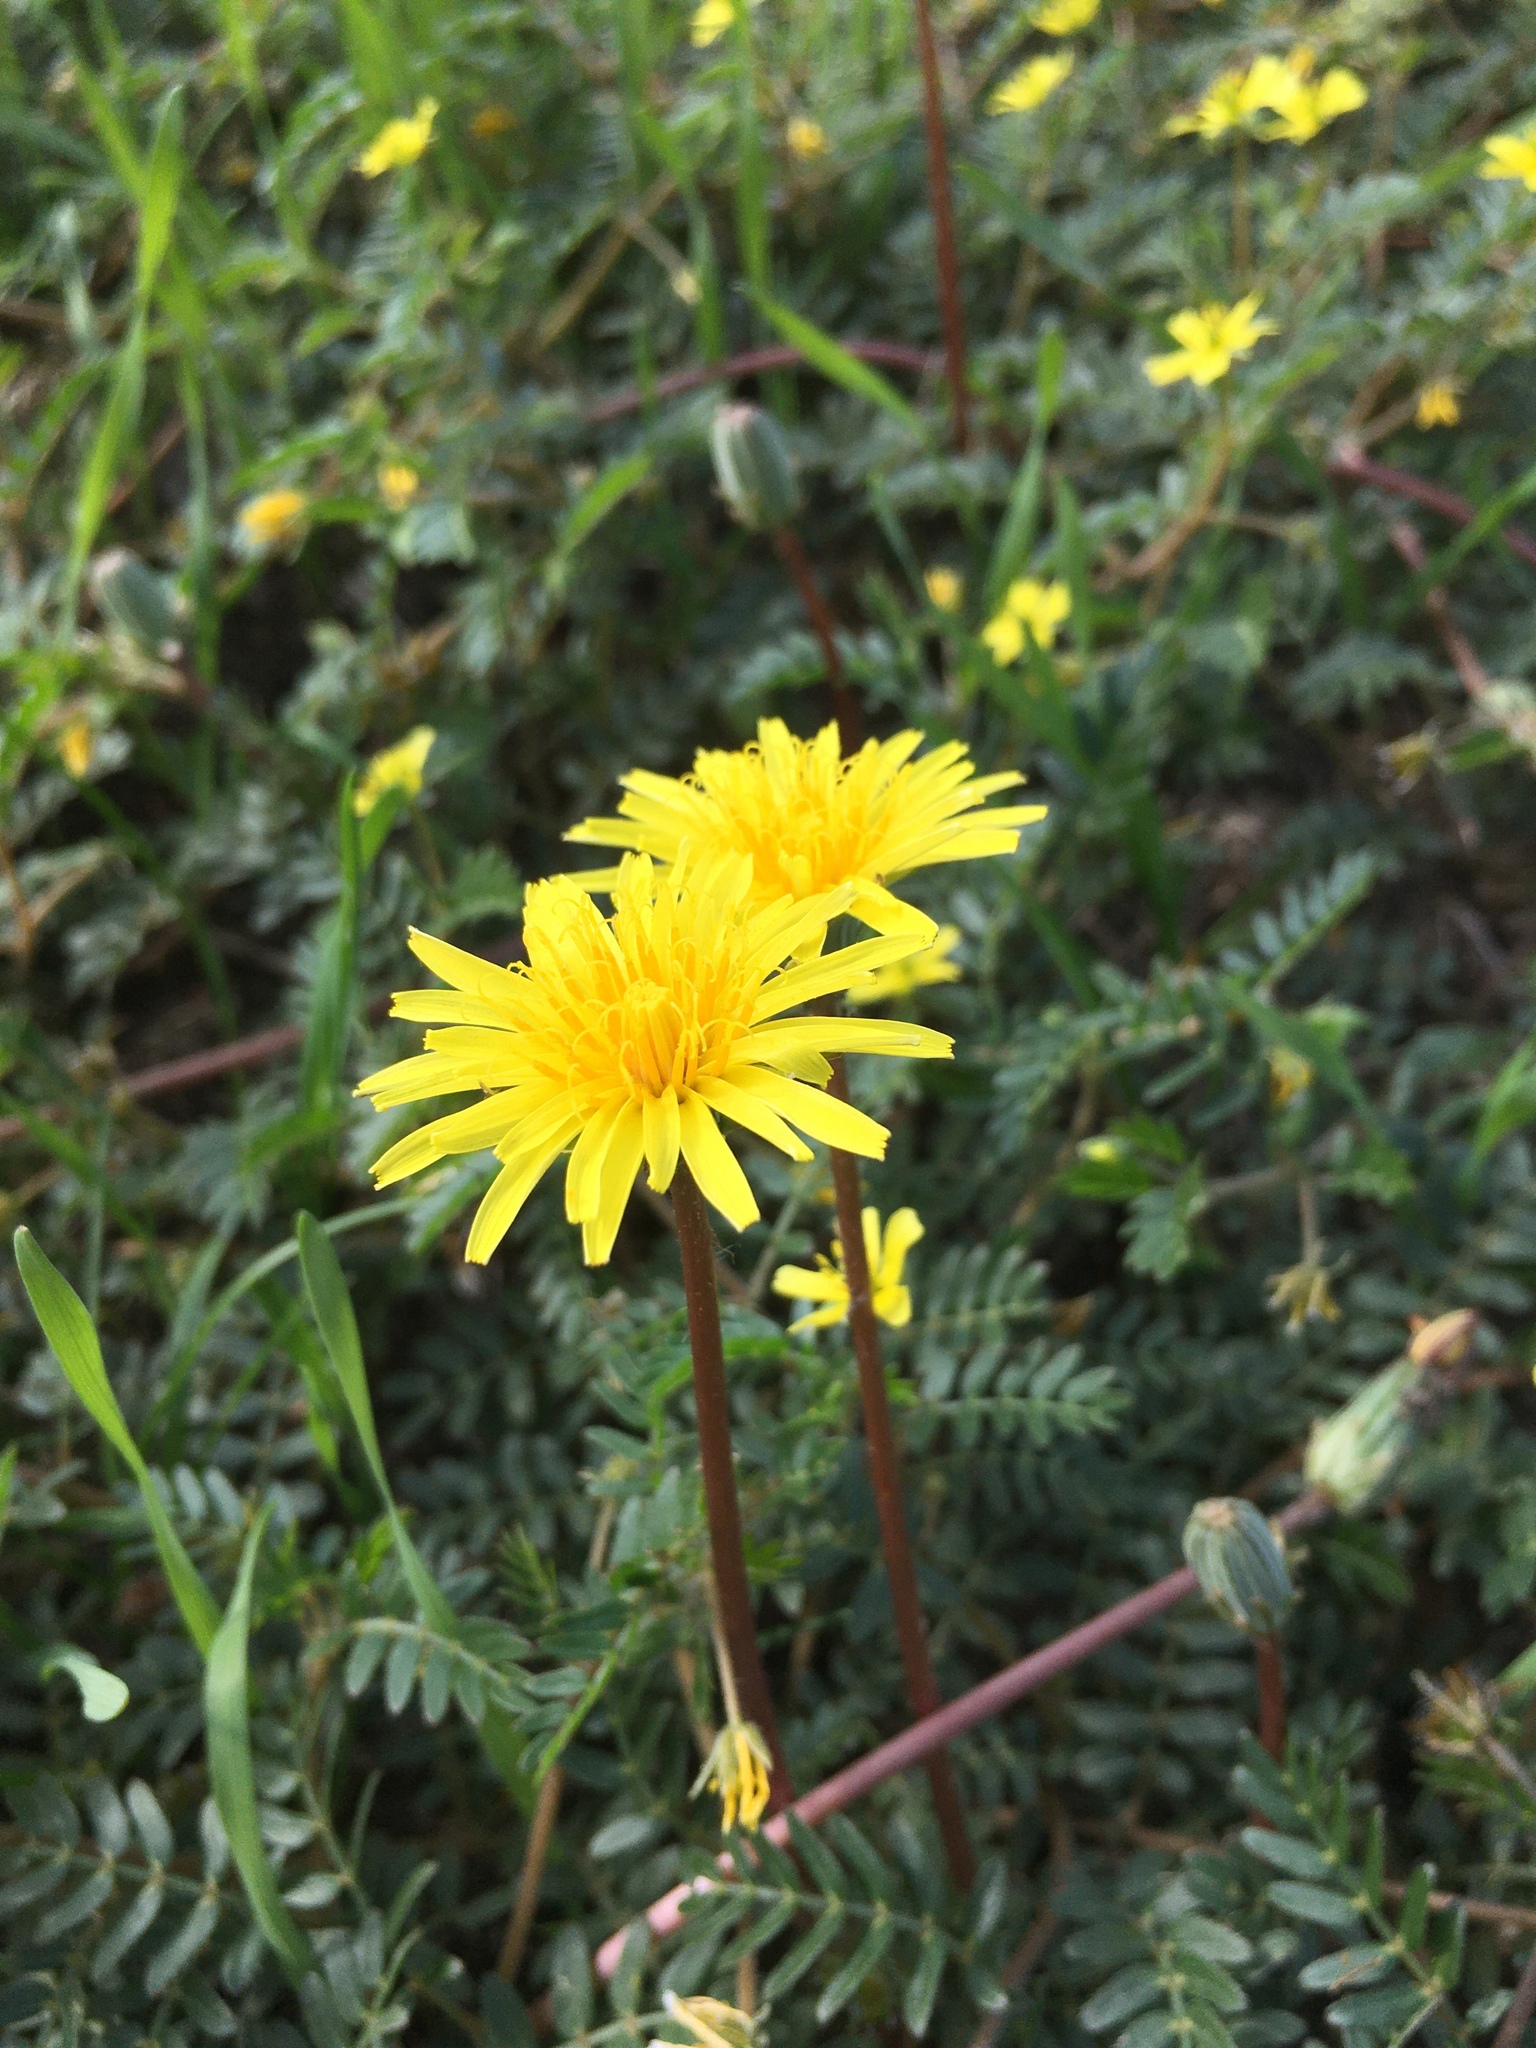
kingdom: Plantae
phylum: Tracheophyta
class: Magnoliopsida
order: Asterales
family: Asteraceae
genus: Taraxacum
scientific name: Taraxacum officinale
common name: Common dandelion
